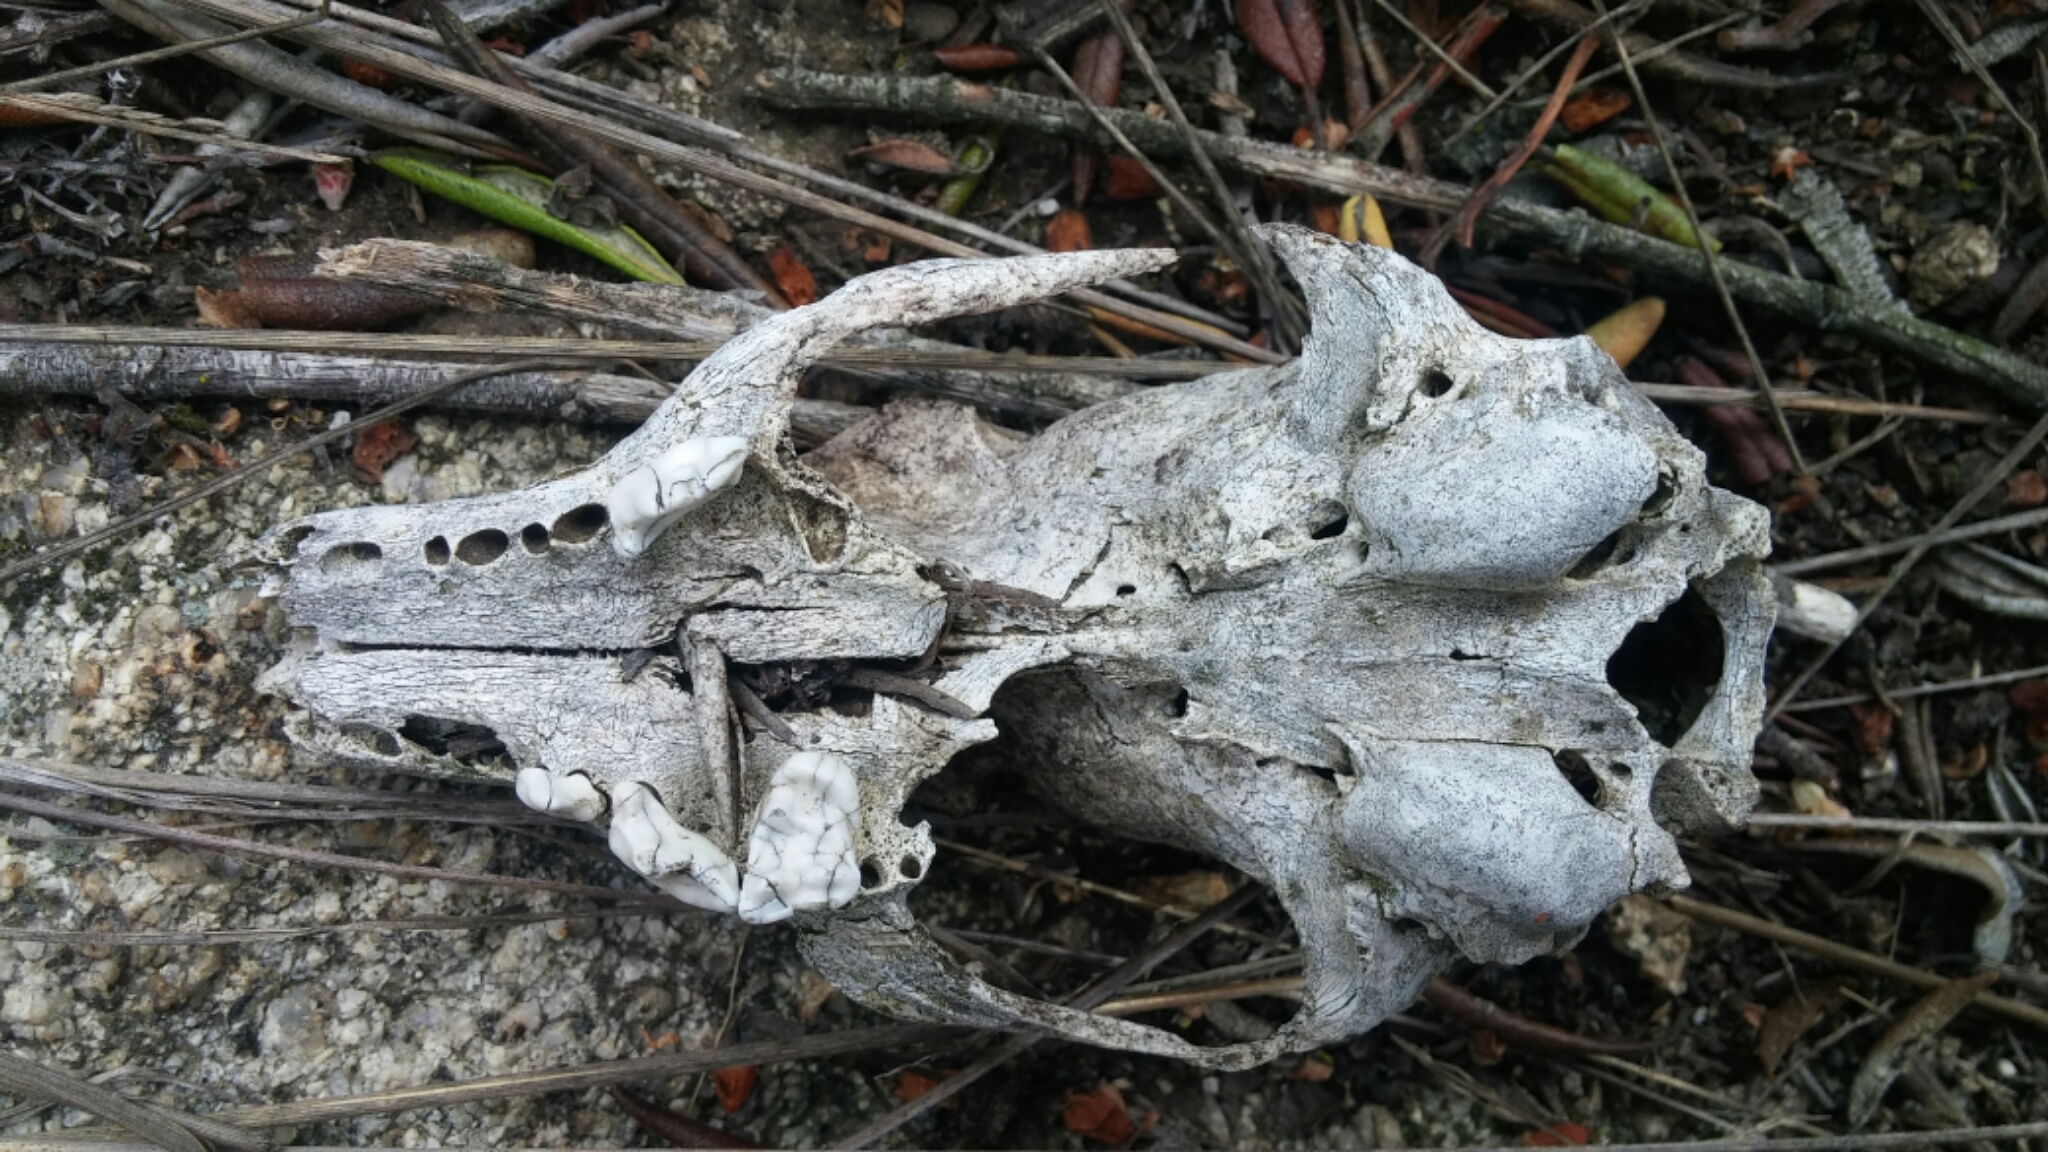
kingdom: Animalia
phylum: Chordata
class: Mammalia
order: Carnivora
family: Canidae
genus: Urocyon
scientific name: Urocyon cinereoargenteus
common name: Gray fox
